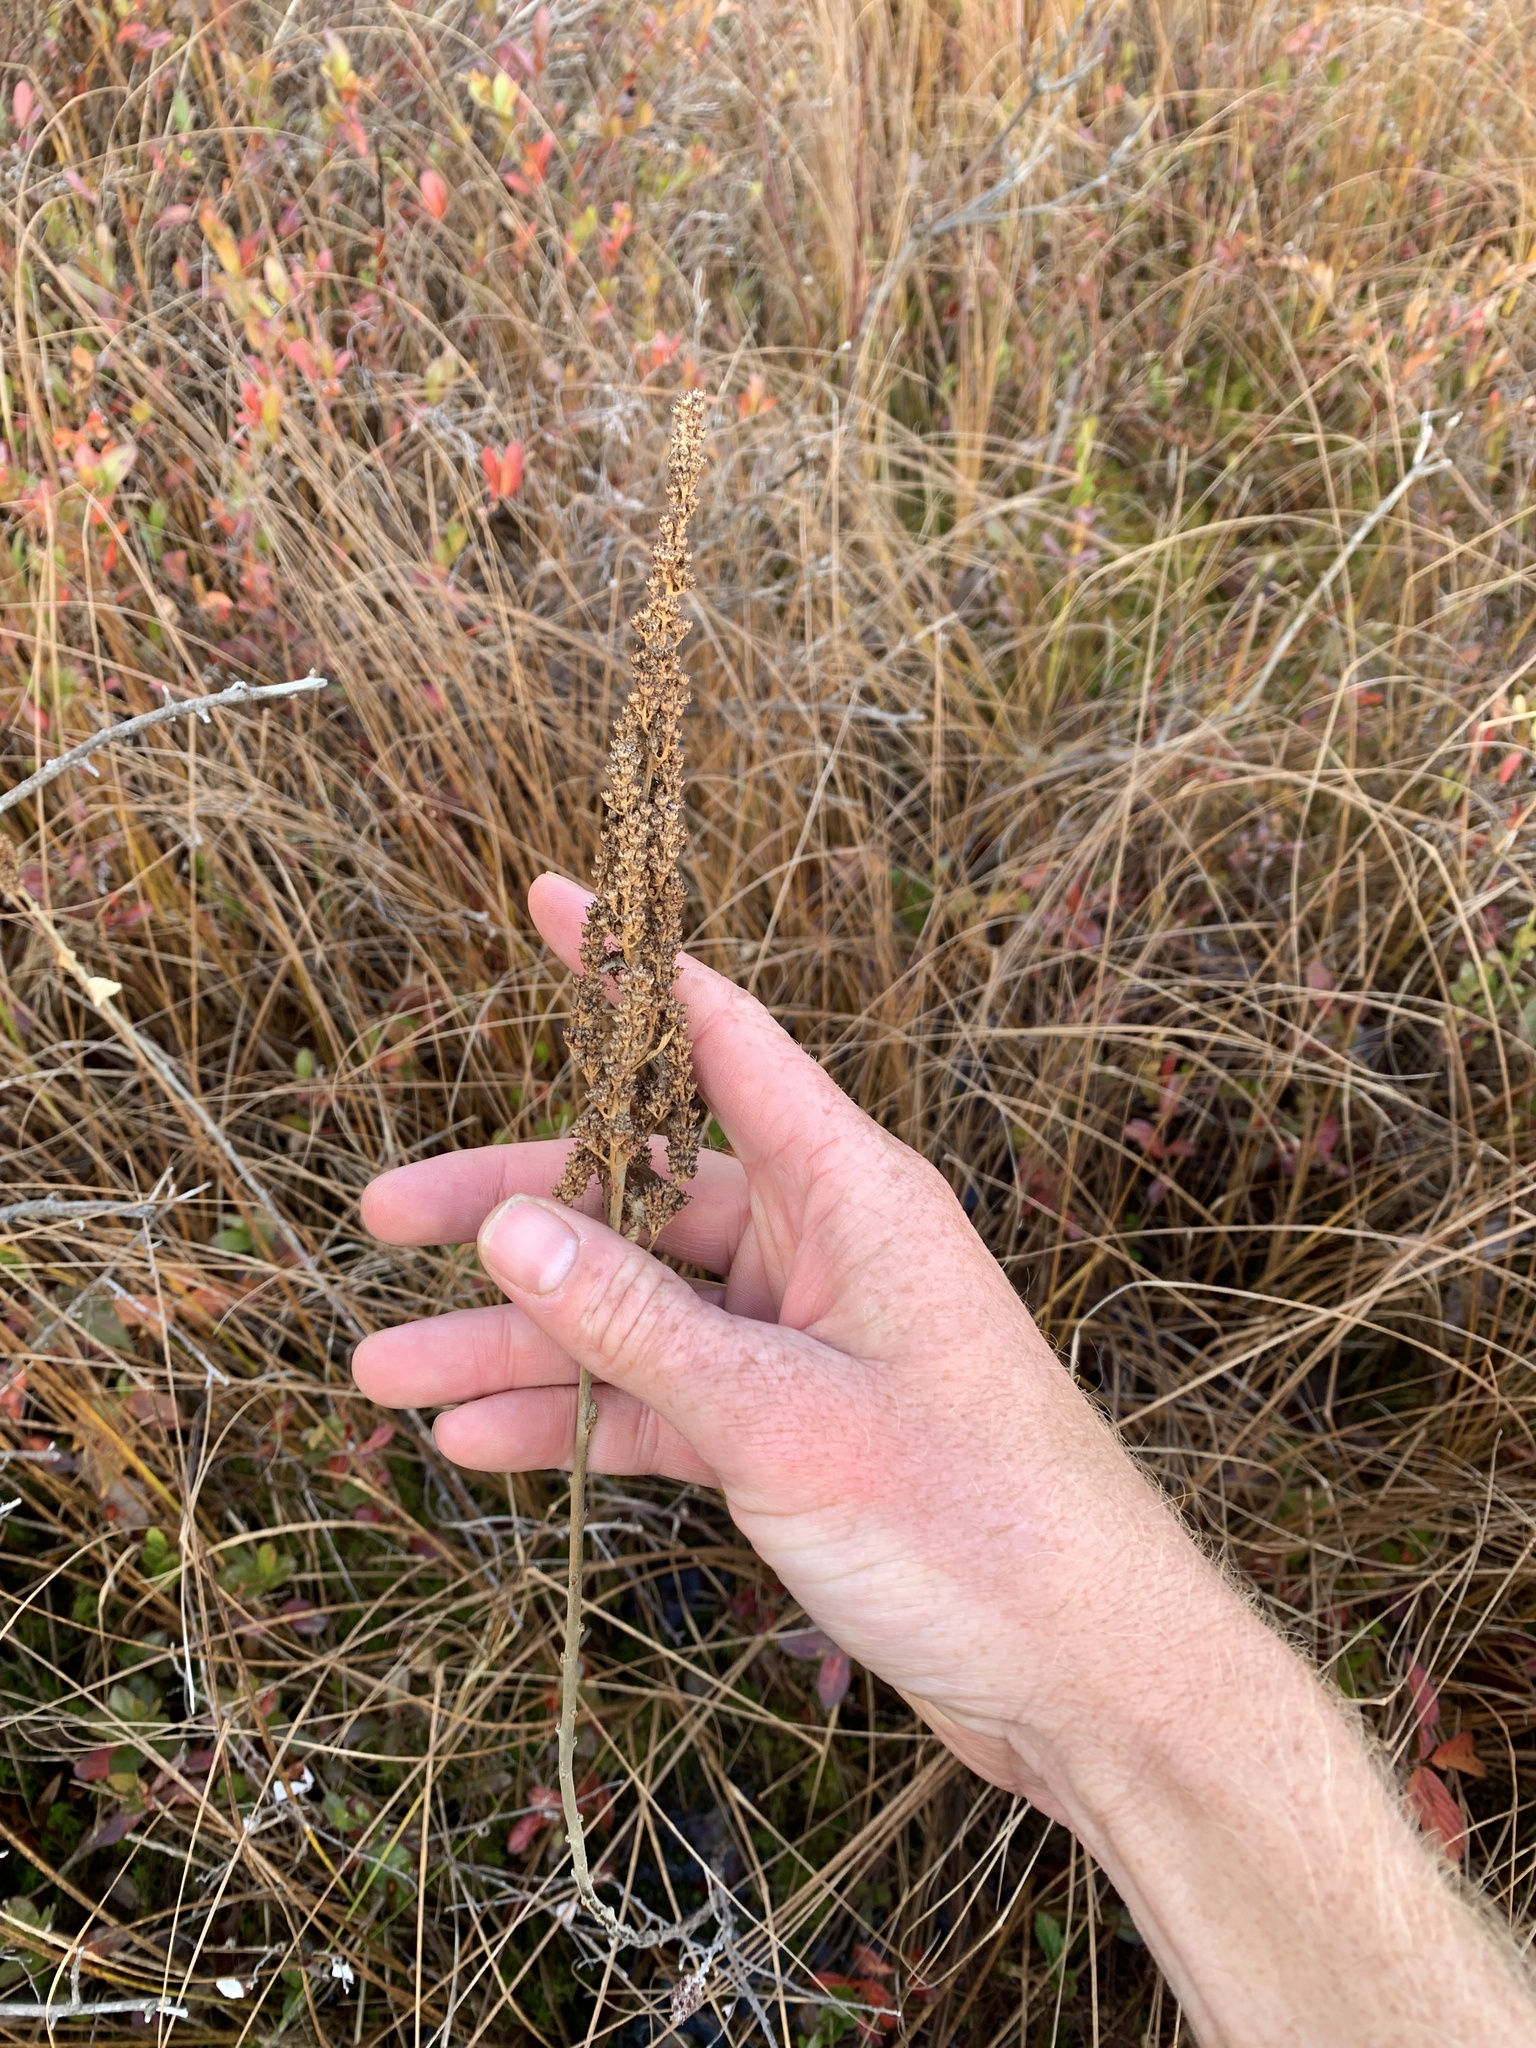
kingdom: Plantae
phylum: Tracheophyta
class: Magnoliopsida
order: Rosales
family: Rosaceae
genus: Spiraea
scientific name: Spiraea tomentosa
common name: Hardhack
